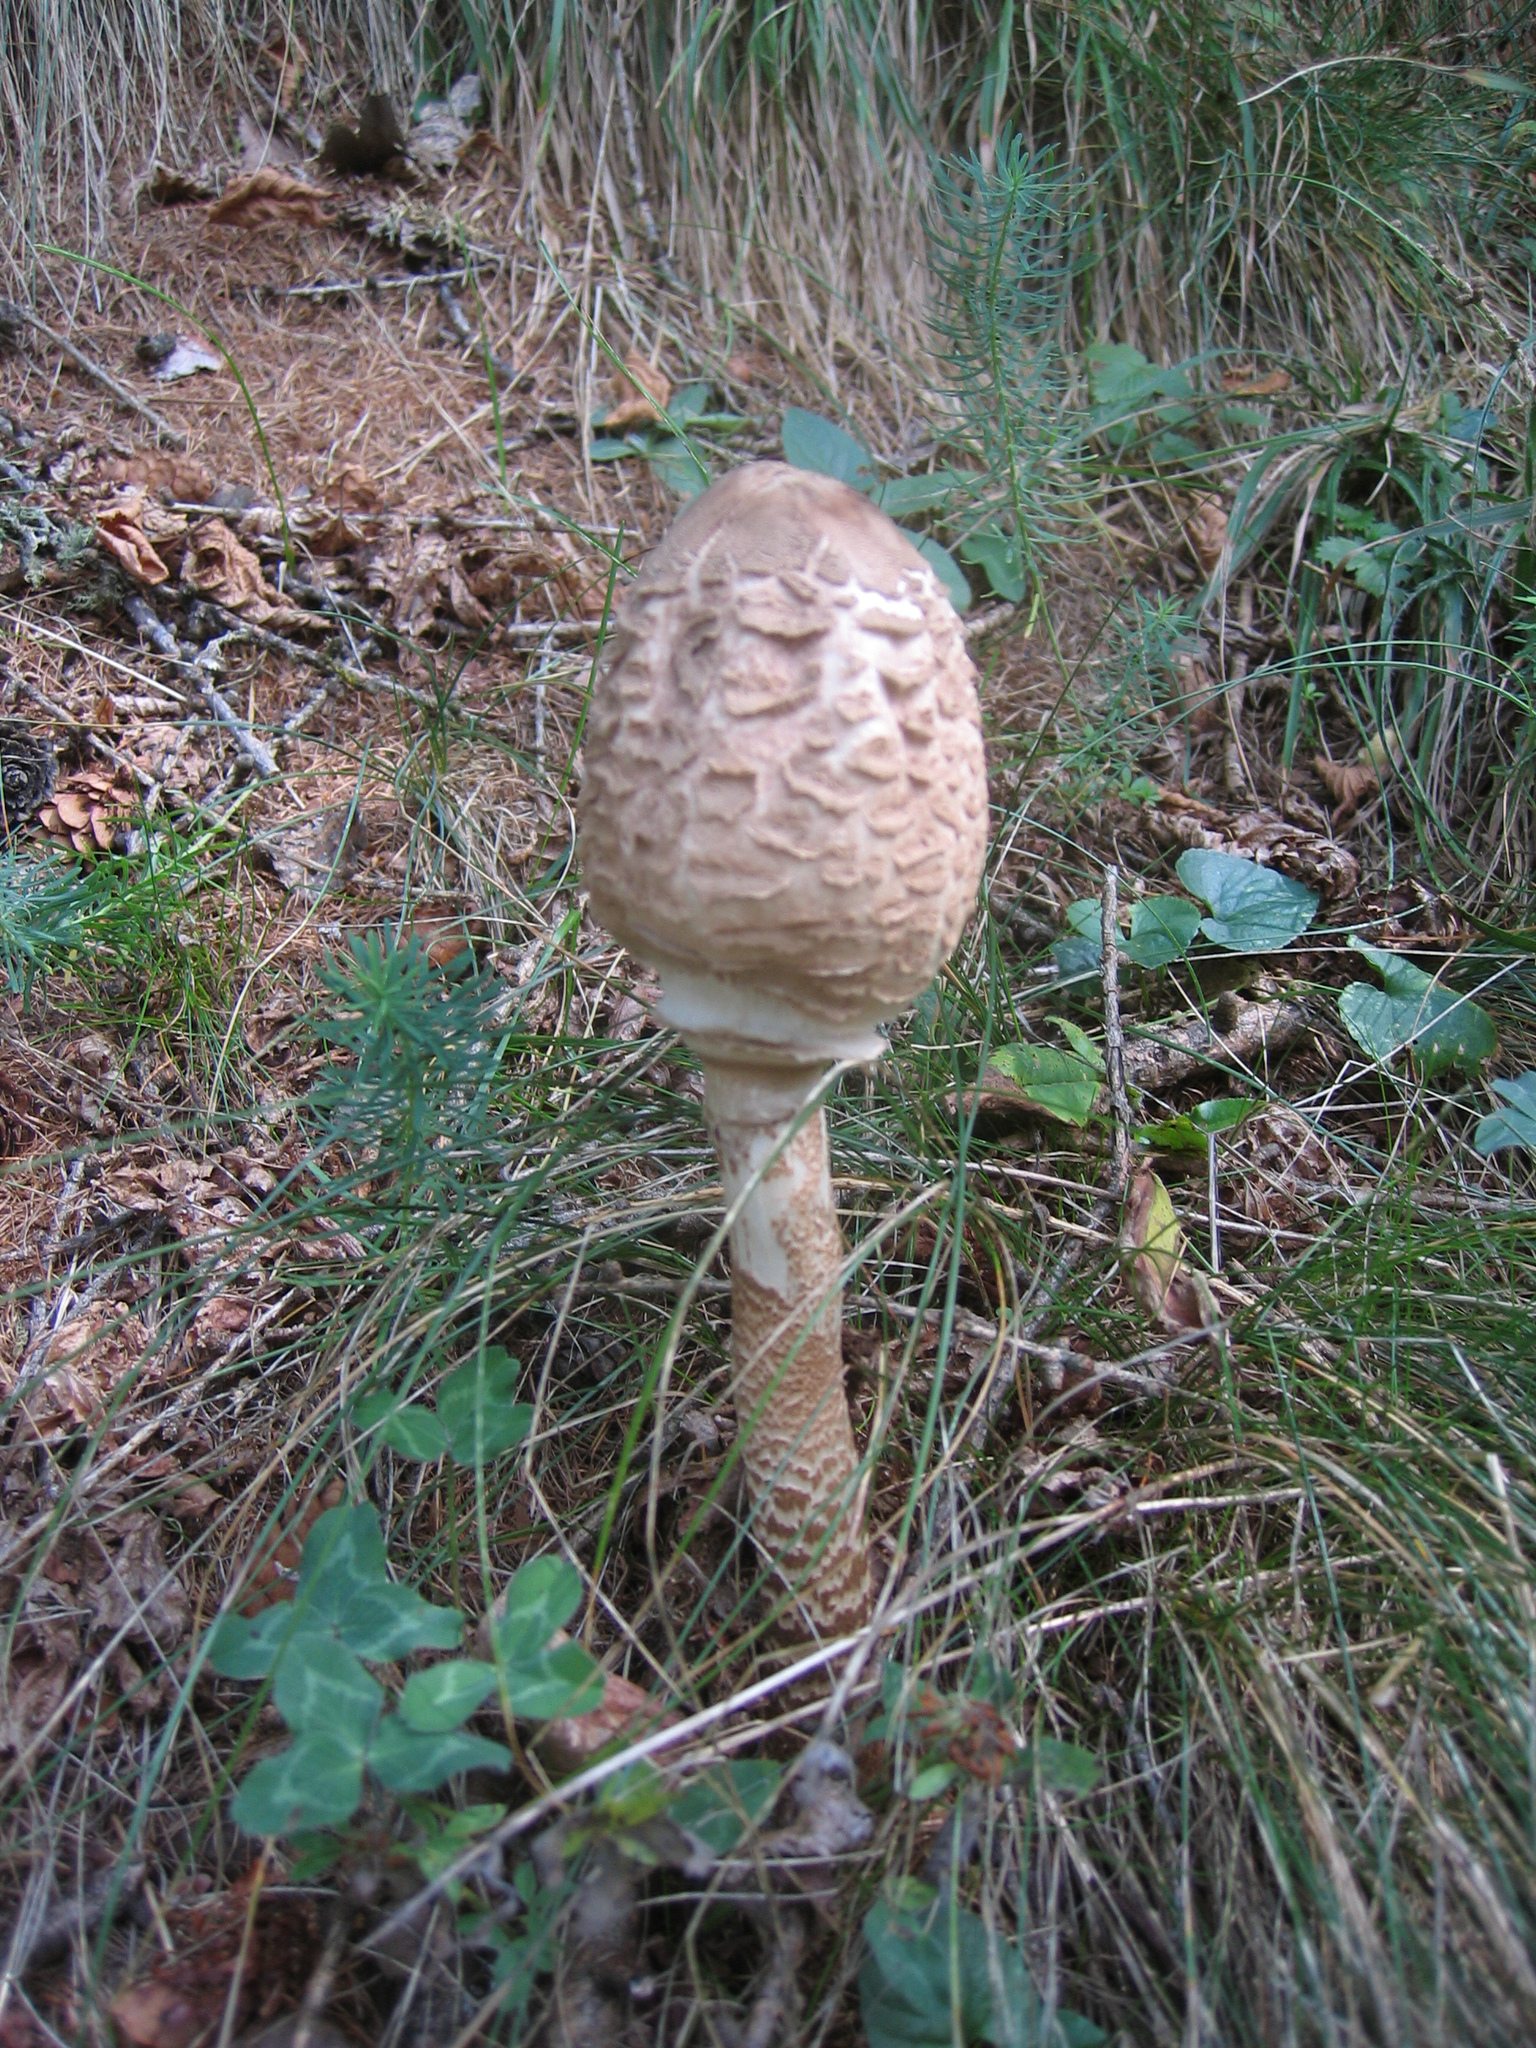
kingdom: Fungi
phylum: Basidiomycota
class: Agaricomycetes
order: Agaricales
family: Agaricaceae
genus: Macrolepiota
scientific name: Macrolepiota procera
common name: Parasol
